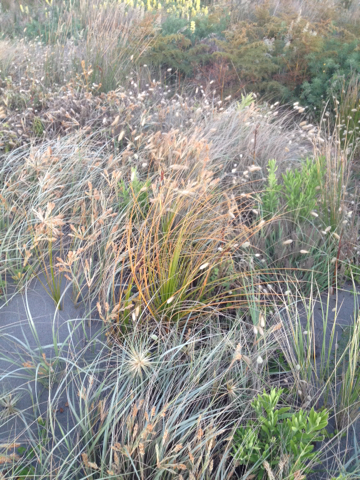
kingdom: Plantae
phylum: Tracheophyta
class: Liliopsida
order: Poales
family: Cyperaceae
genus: Ficinia
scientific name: Ficinia spiralis
